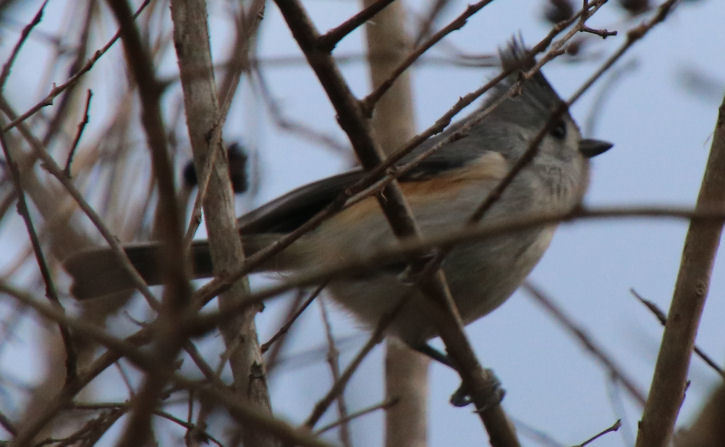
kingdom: Animalia
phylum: Chordata
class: Aves
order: Passeriformes
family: Paridae
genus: Baeolophus
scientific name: Baeolophus bicolor
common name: Tufted titmouse
